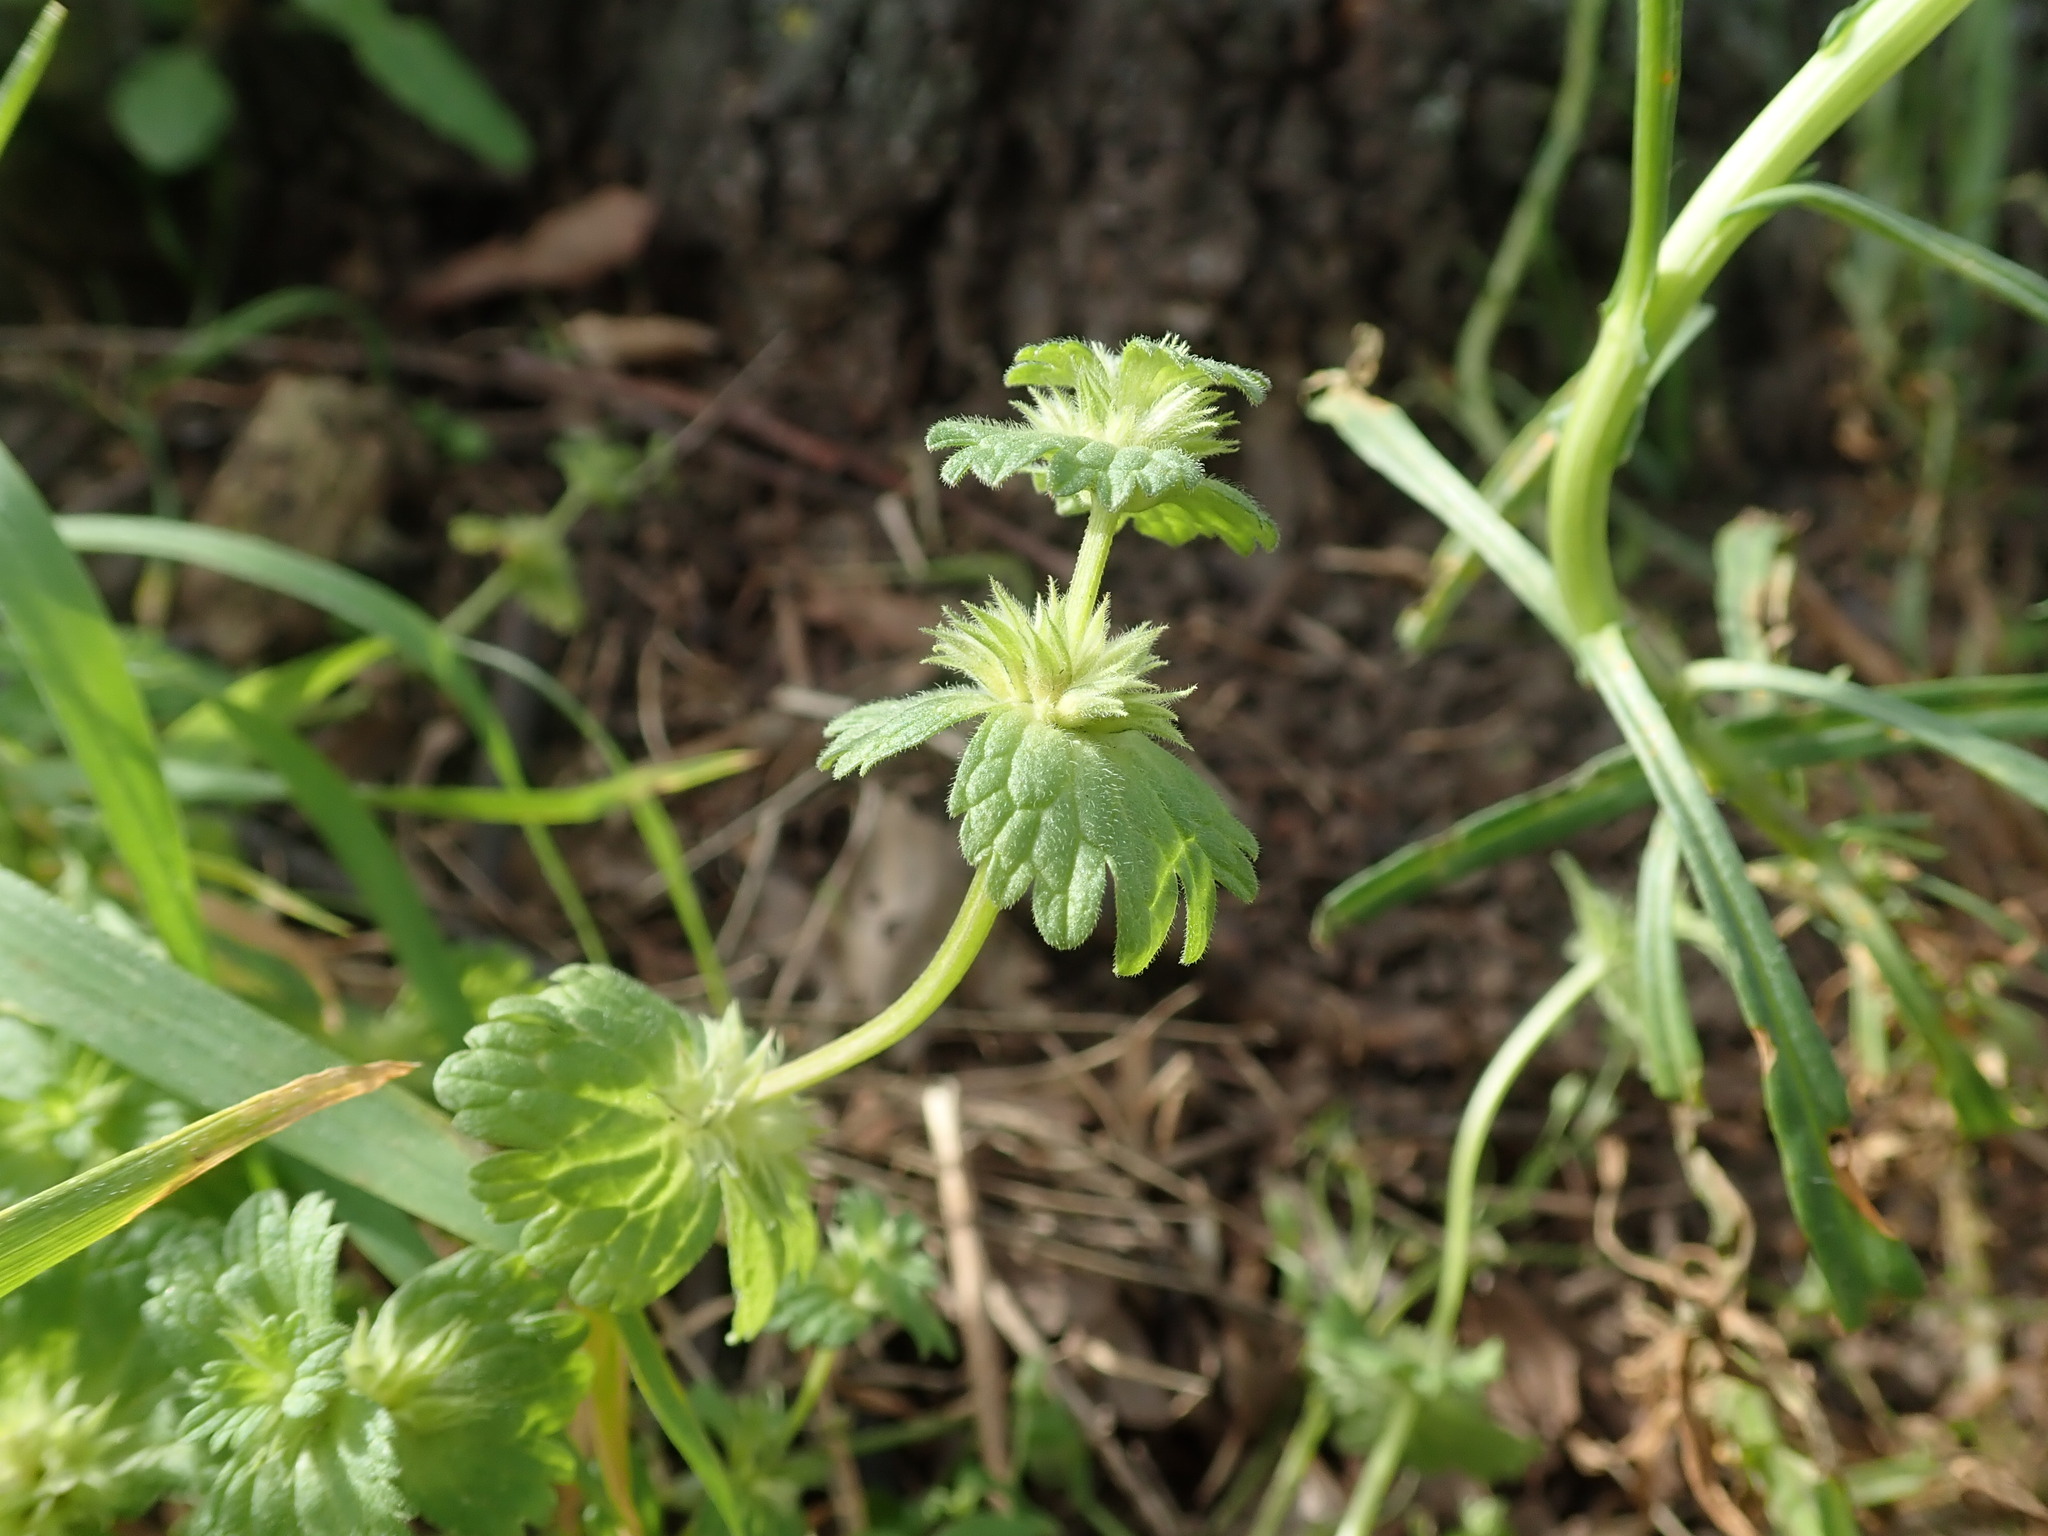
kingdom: Plantae
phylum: Tracheophyta
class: Magnoliopsida
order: Lamiales
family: Lamiaceae
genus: Lamium
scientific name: Lamium amplexicaule
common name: Henbit dead-nettle
